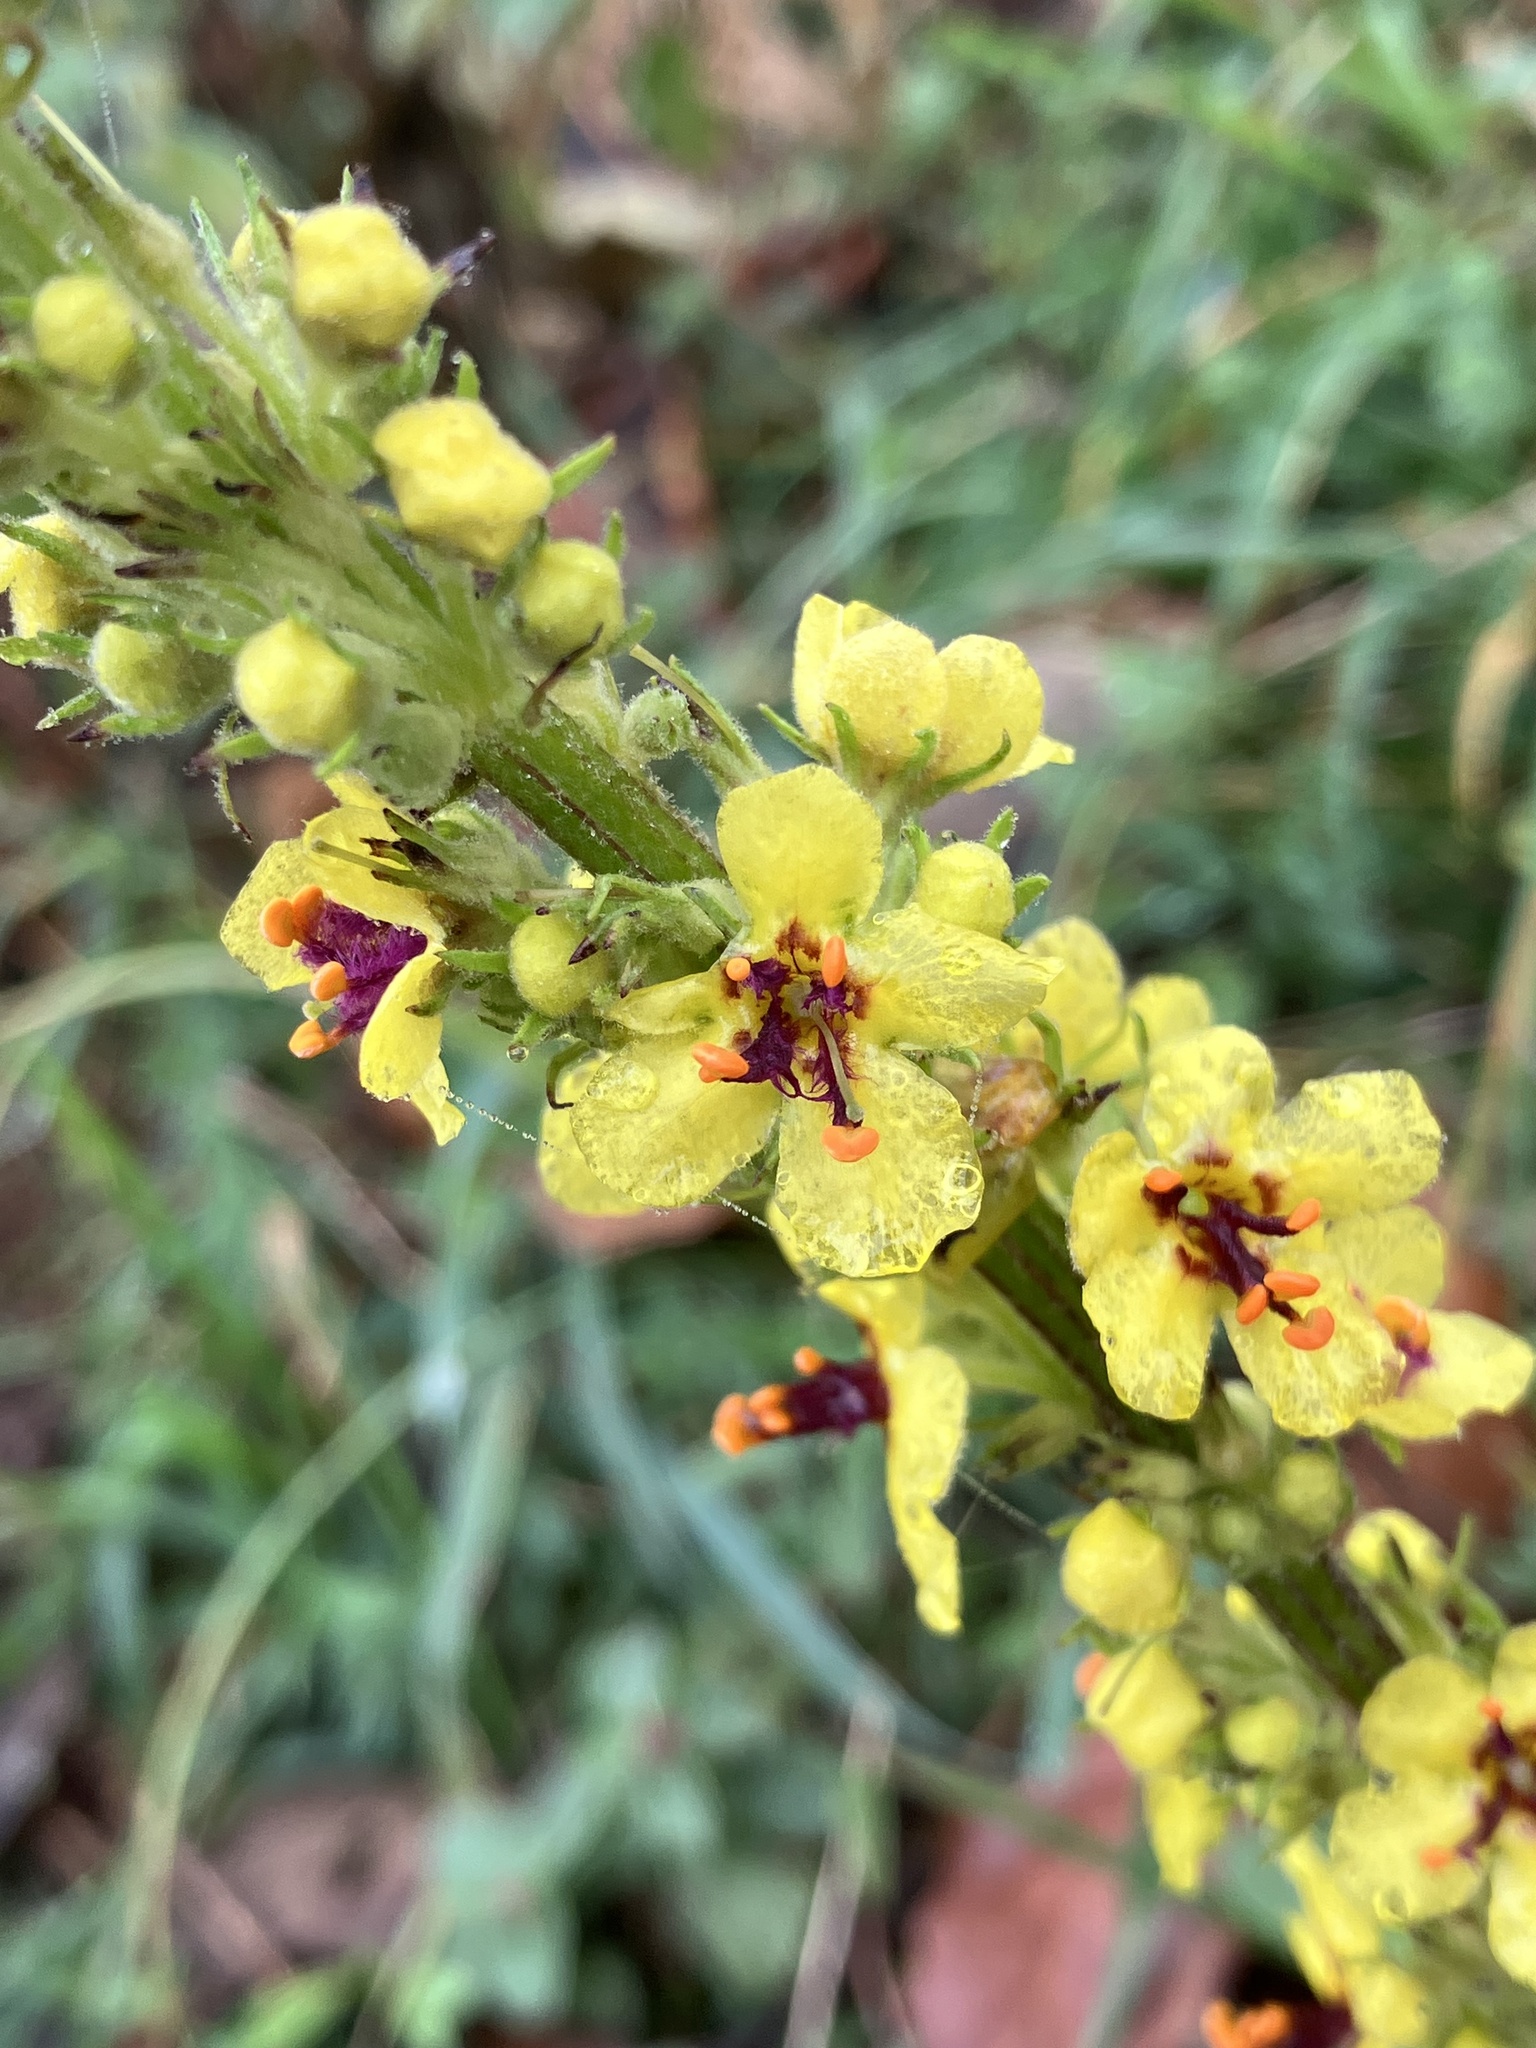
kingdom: Plantae
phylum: Tracheophyta
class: Magnoliopsida
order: Lamiales
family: Scrophulariaceae
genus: Verbascum
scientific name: Verbascum nigrum
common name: Dark mullein
